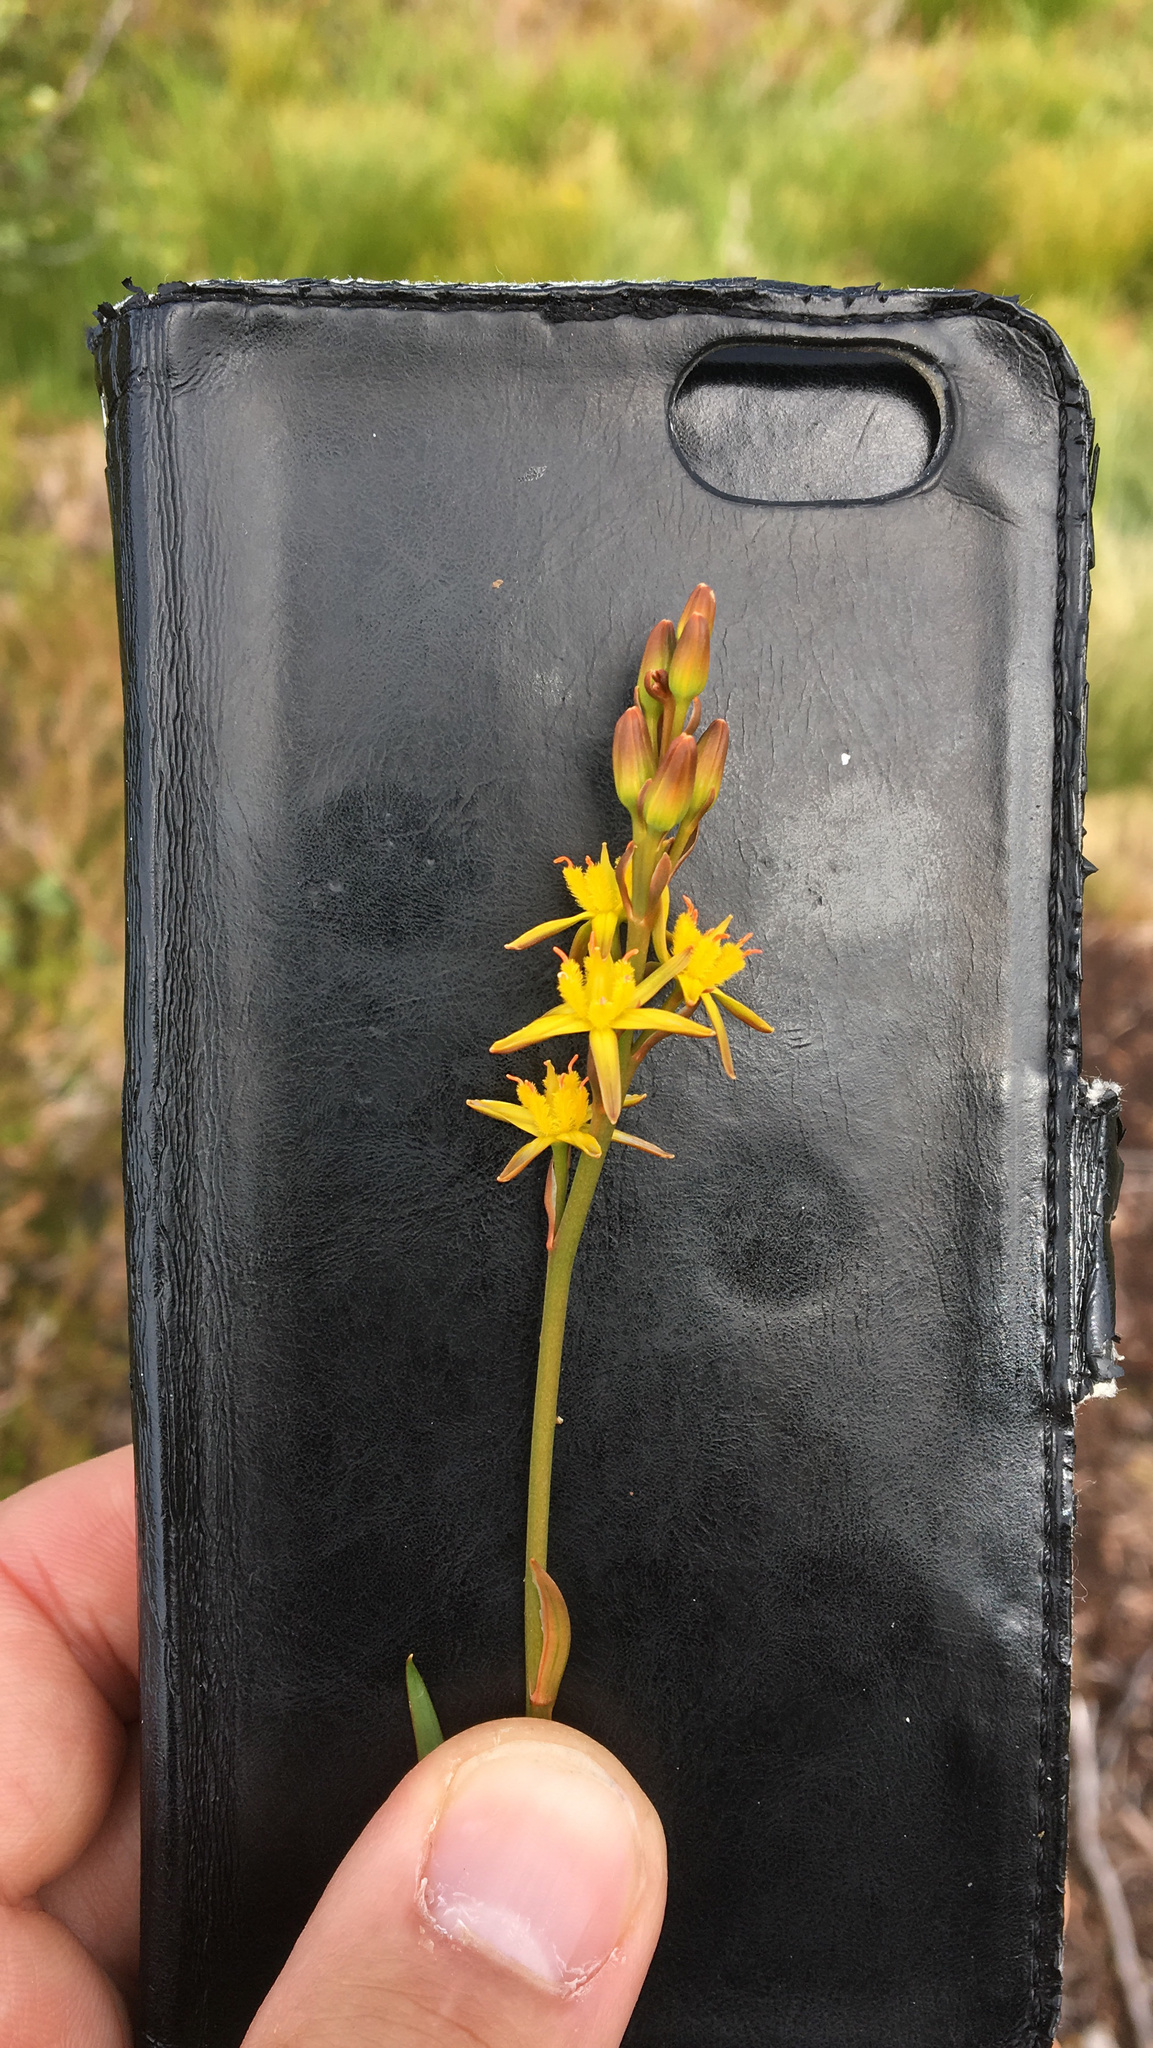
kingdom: Plantae
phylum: Tracheophyta
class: Liliopsida
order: Dioscoreales
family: Nartheciaceae
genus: Narthecium
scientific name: Narthecium ossifragum
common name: Bog asphodel
